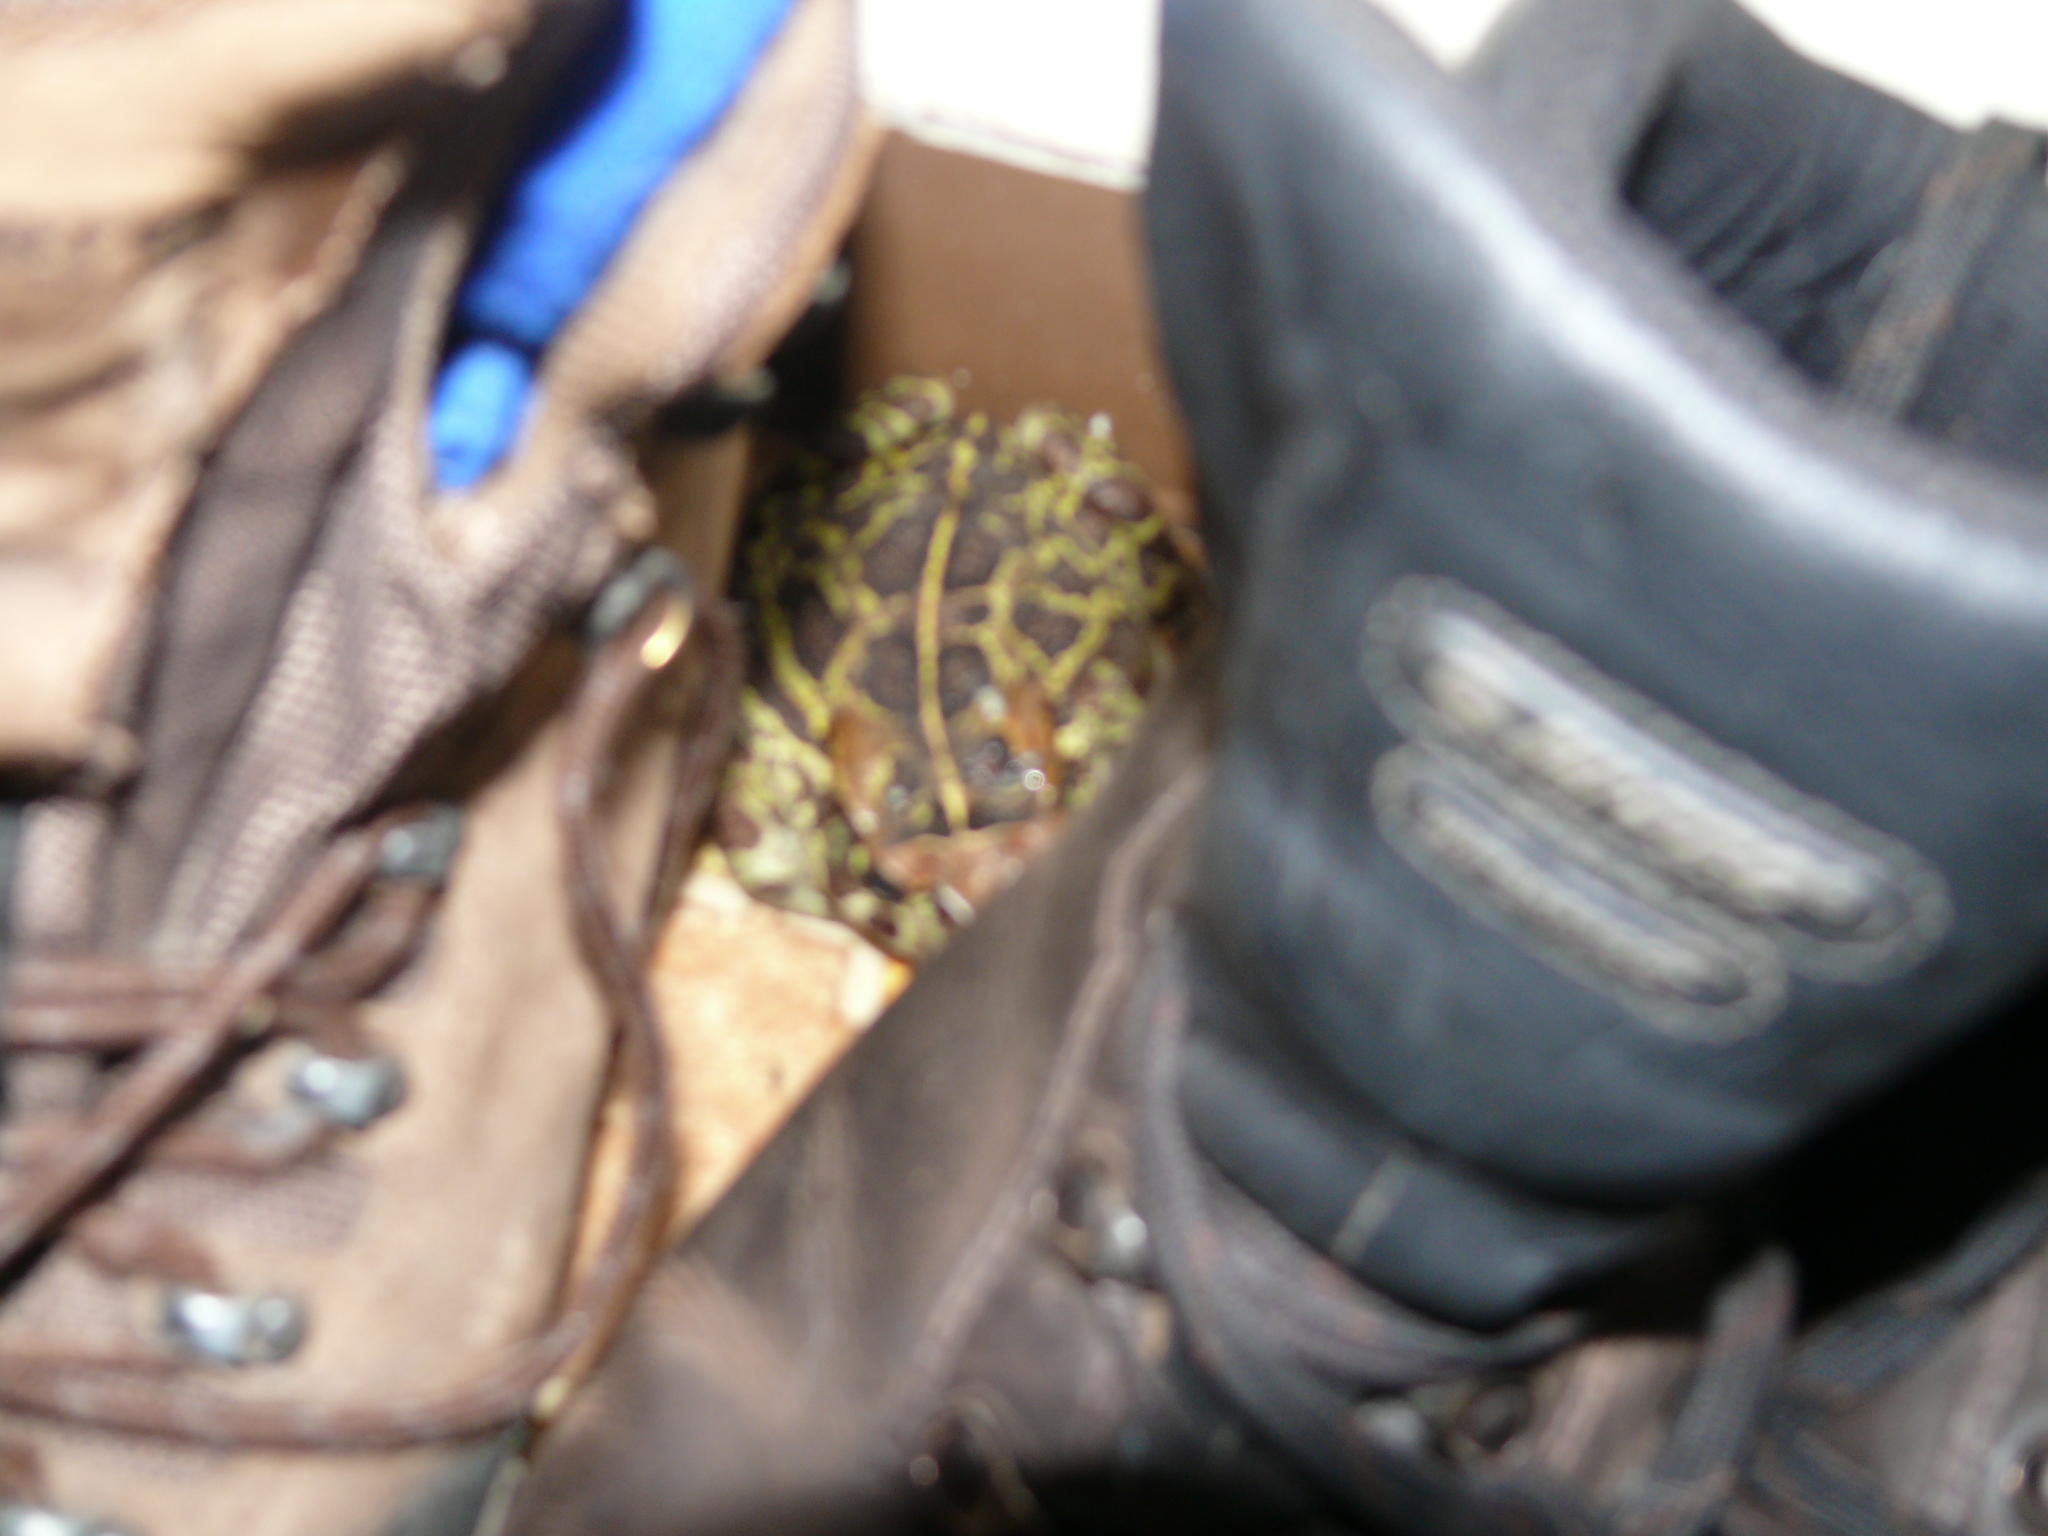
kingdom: Animalia
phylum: Chordata
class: Amphibia
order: Anura
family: Bufonidae
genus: Sclerophrys
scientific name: Sclerophrys pantherina
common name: Panther toad
